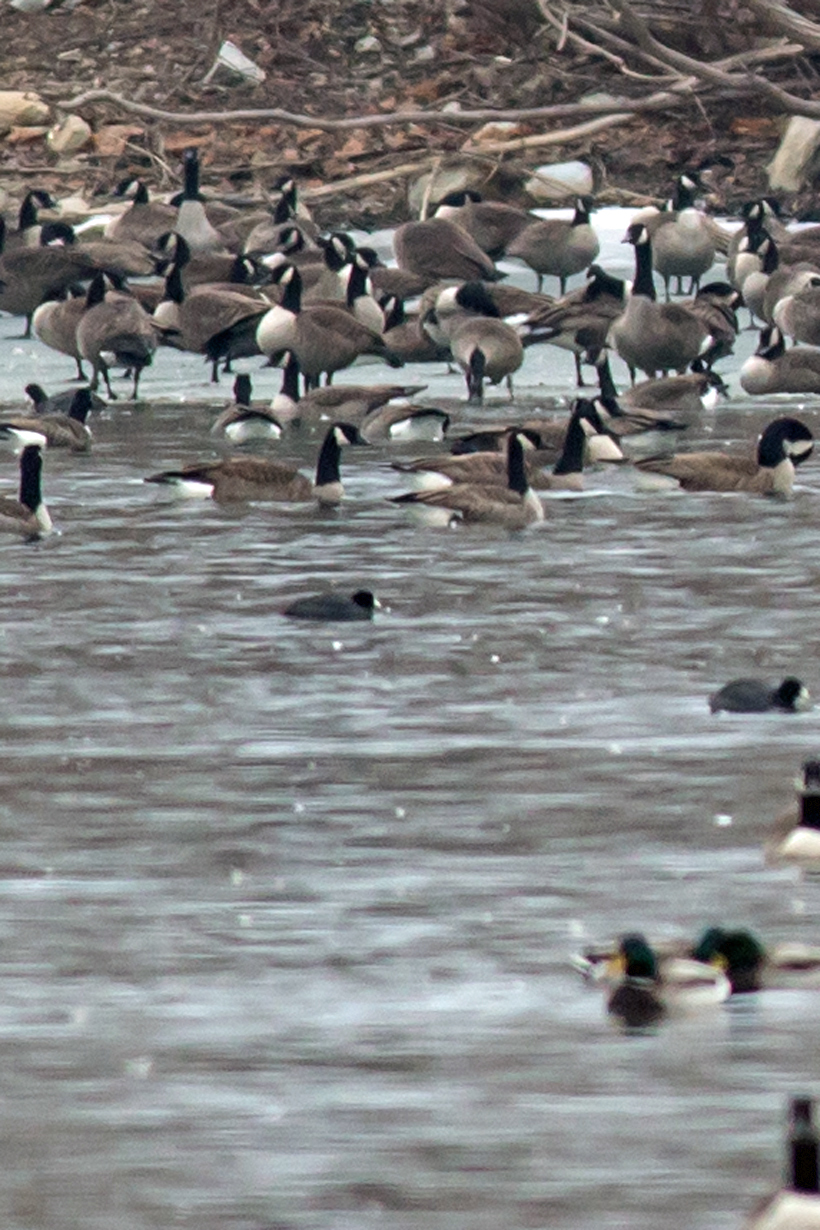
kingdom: Animalia
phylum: Chordata
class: Aves
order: Gruiformes
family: Rallidae
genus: Fulica
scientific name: Fulica americana
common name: American coot
